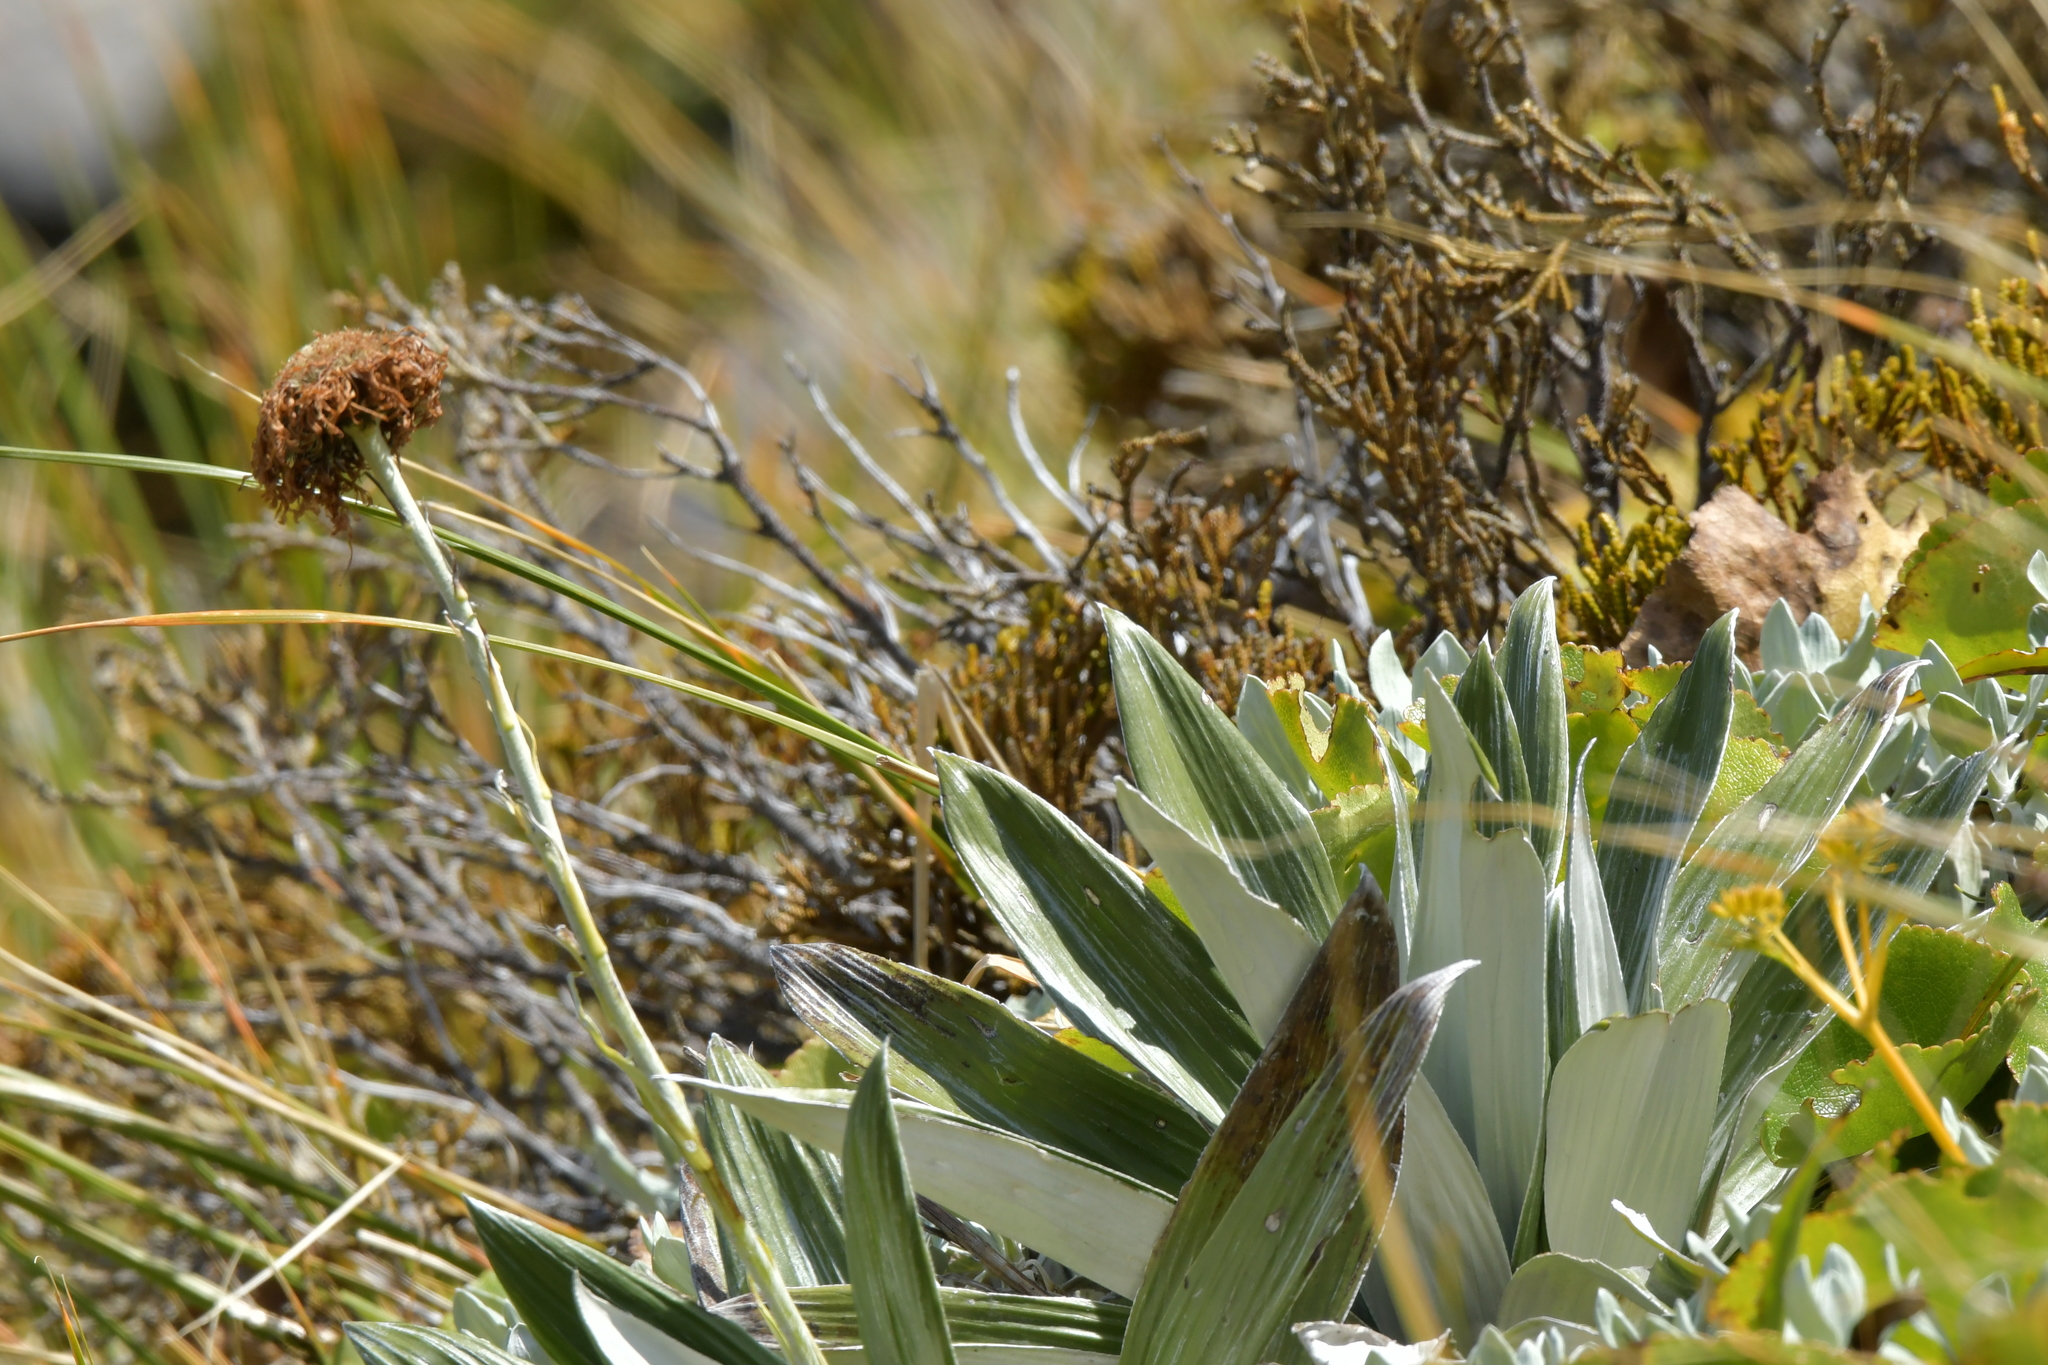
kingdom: Plantae
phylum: Tracheophyta
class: Magnoliopsida
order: Asterales
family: Asteraceae
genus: Celmisia
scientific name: Celmisia semicordata
